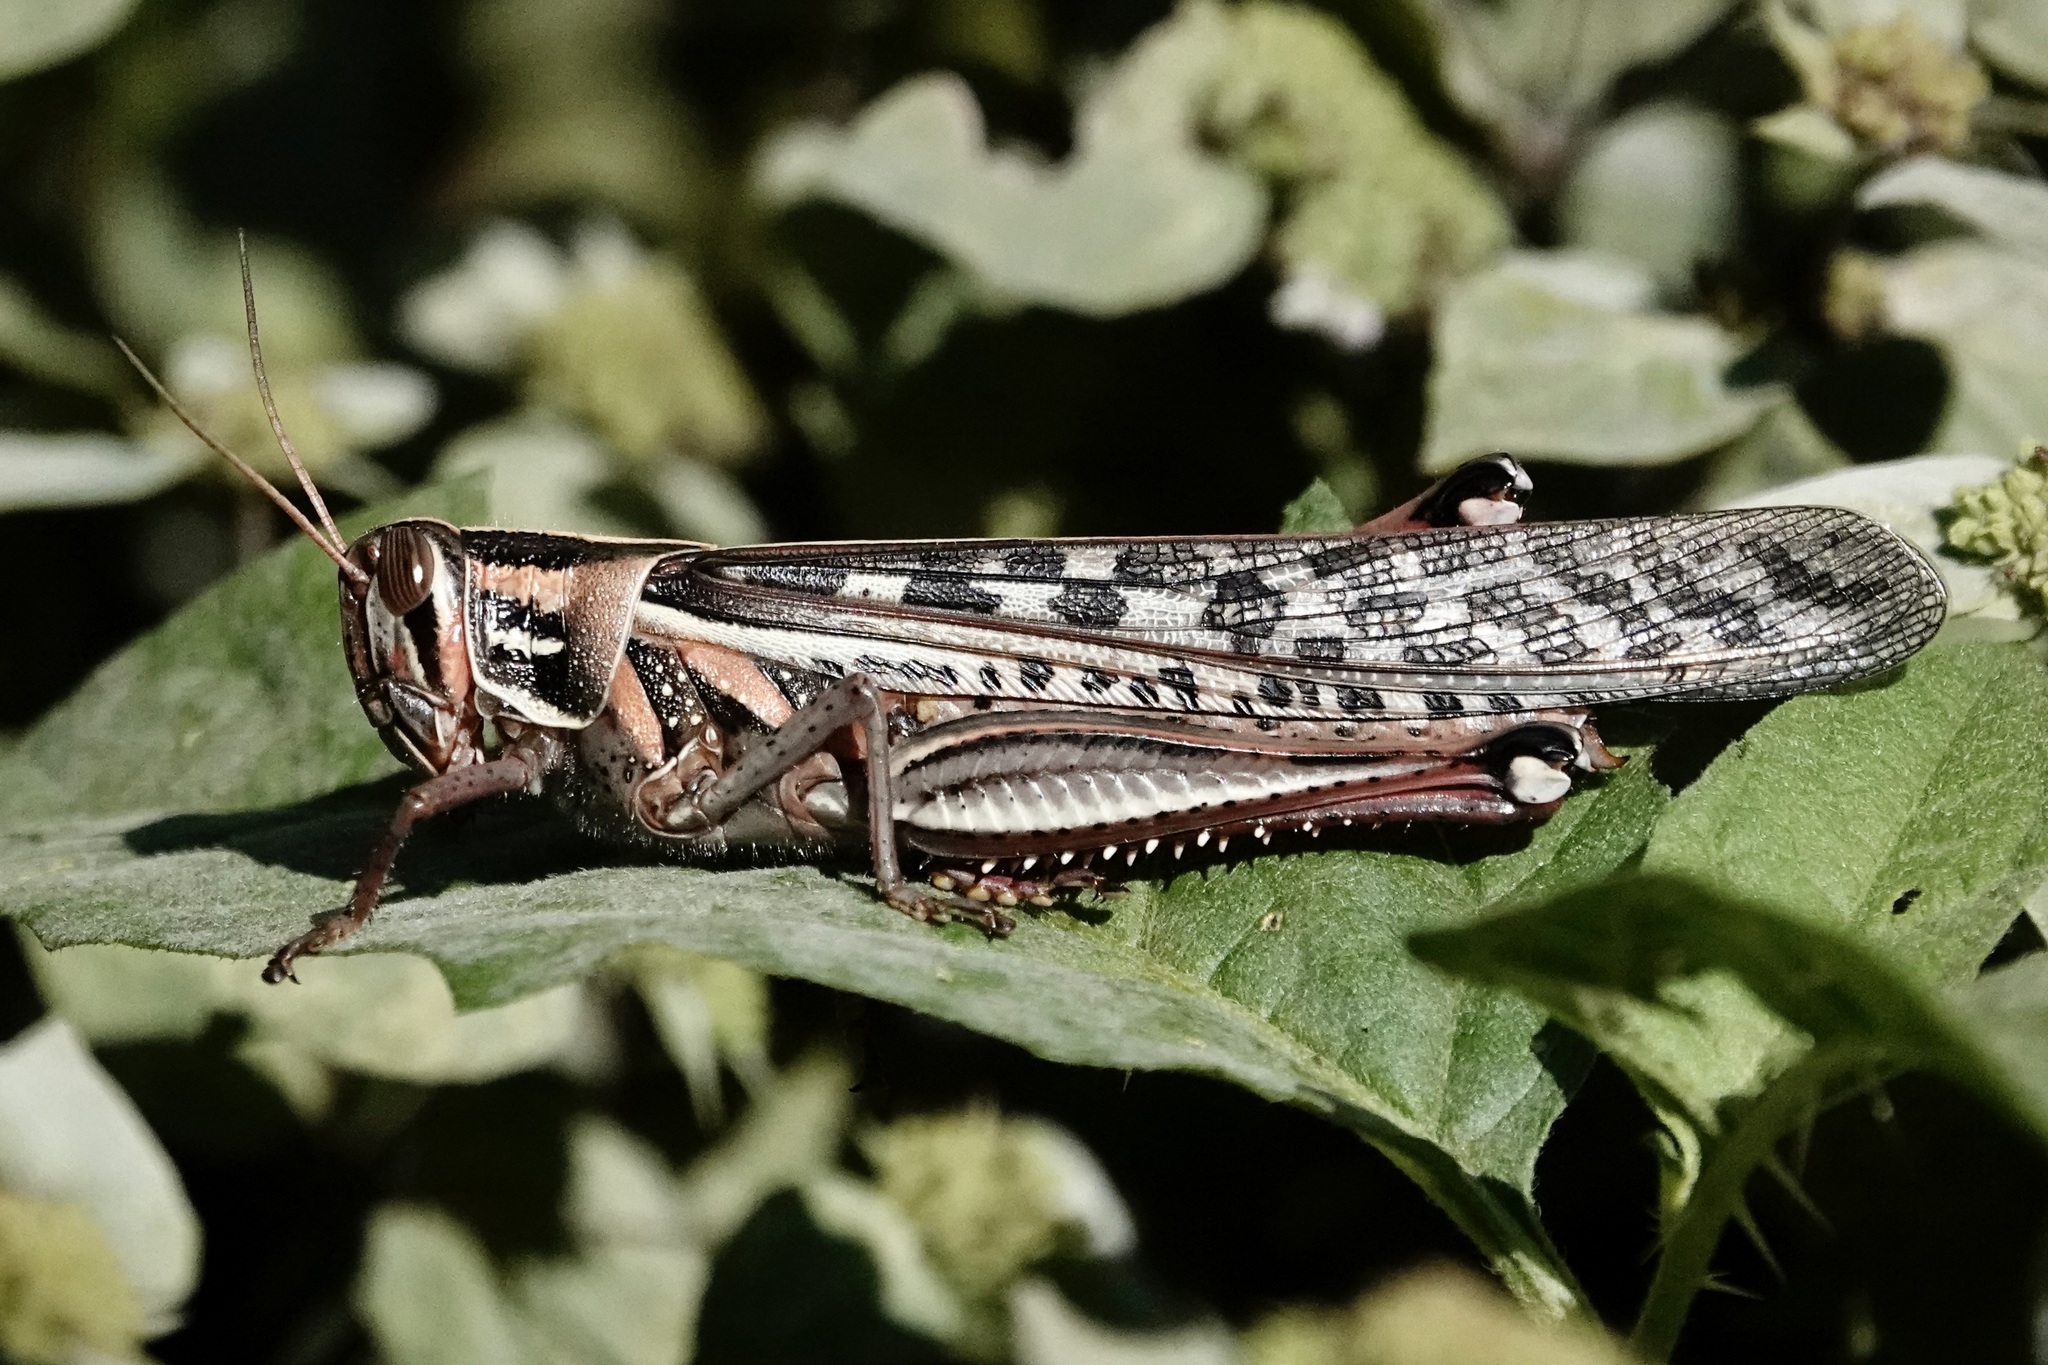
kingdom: Animalia
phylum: Arthropoda
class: Insecta
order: Orthoptera
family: Acrididae
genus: Schistocerca
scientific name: Schistocerca americana
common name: American bird locust
